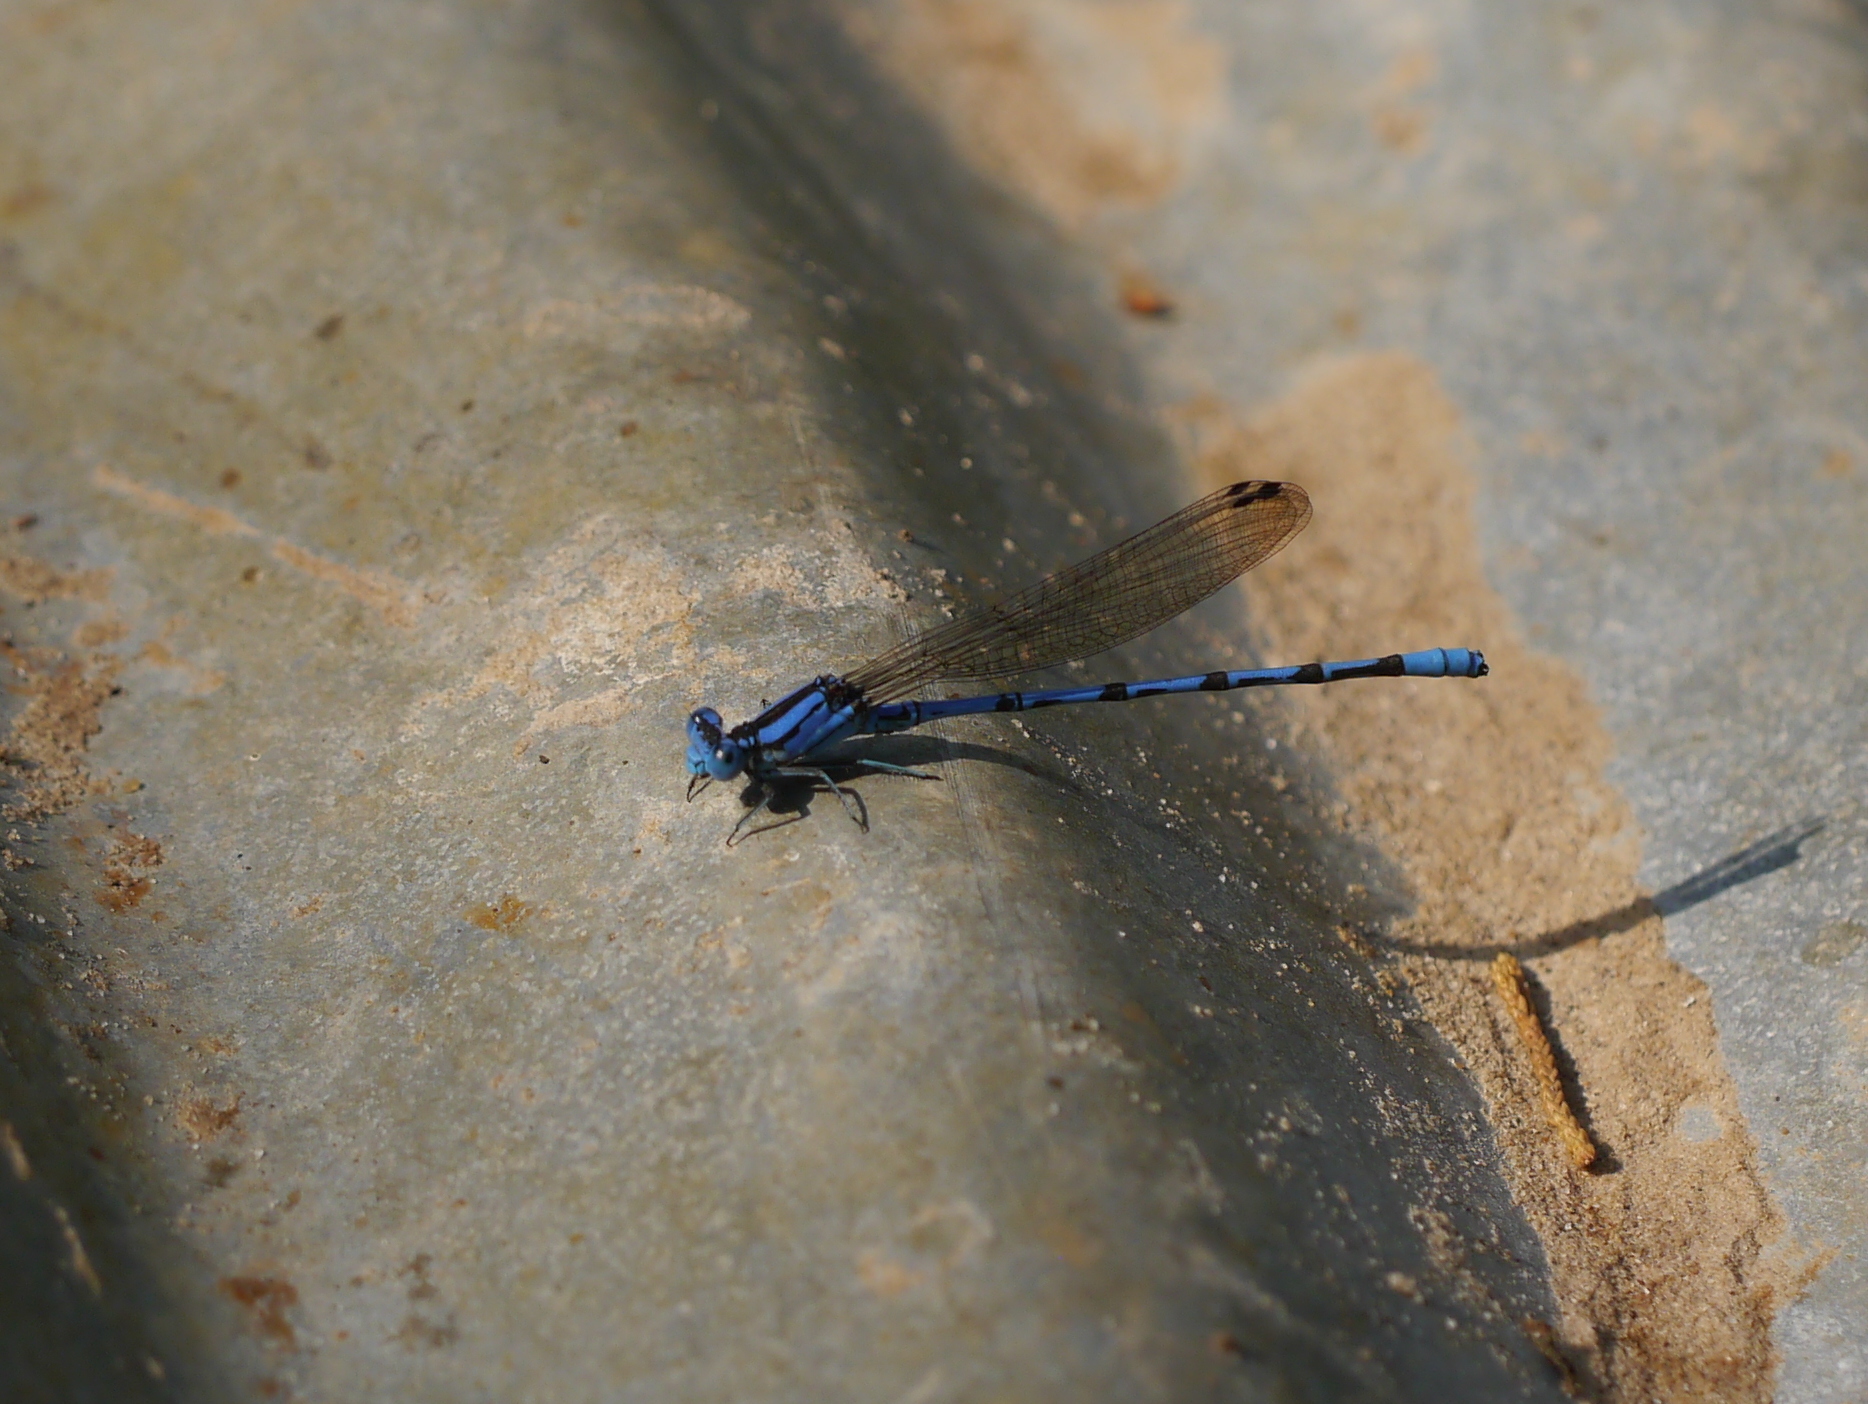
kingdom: Animalia
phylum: Arthropoda
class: Insecta
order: Odonata
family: Coenagrionidae
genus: Argia
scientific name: Argia funebris
